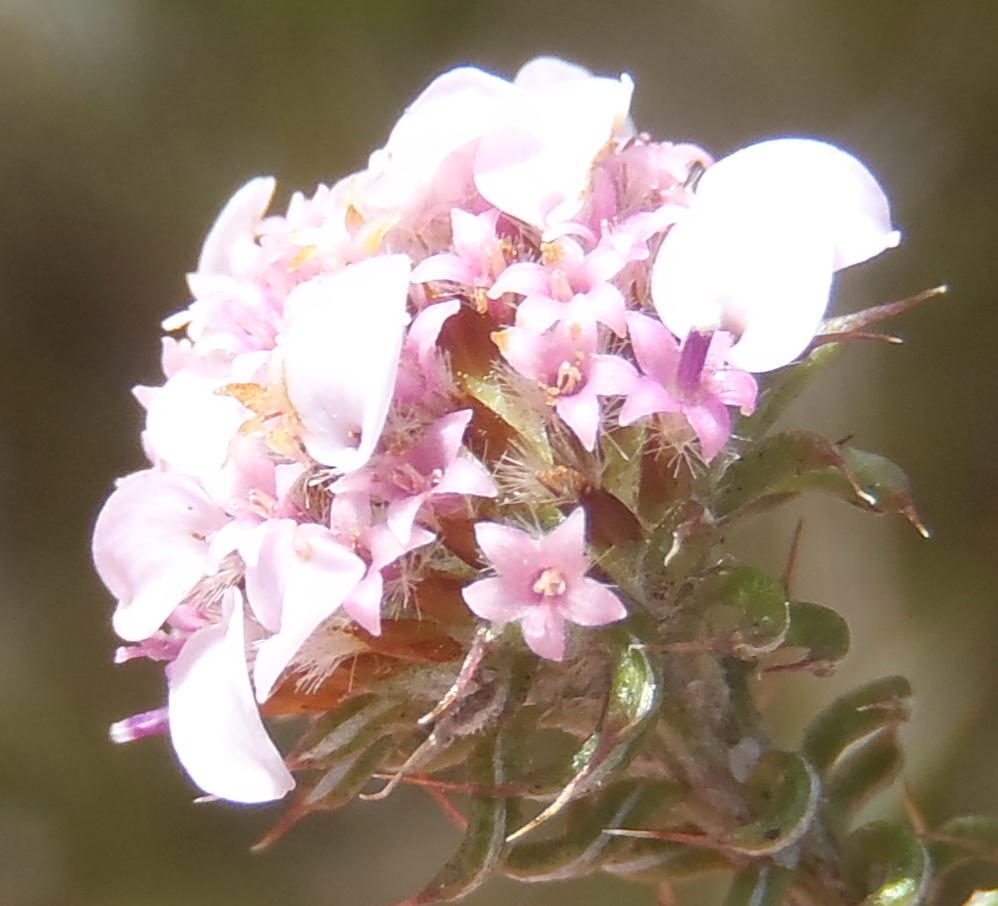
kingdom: Plantae
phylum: Tracheophyta
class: Magnoliopsida
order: Asterales
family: Asteraceae
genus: Disparago
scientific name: Disparago tortilis
